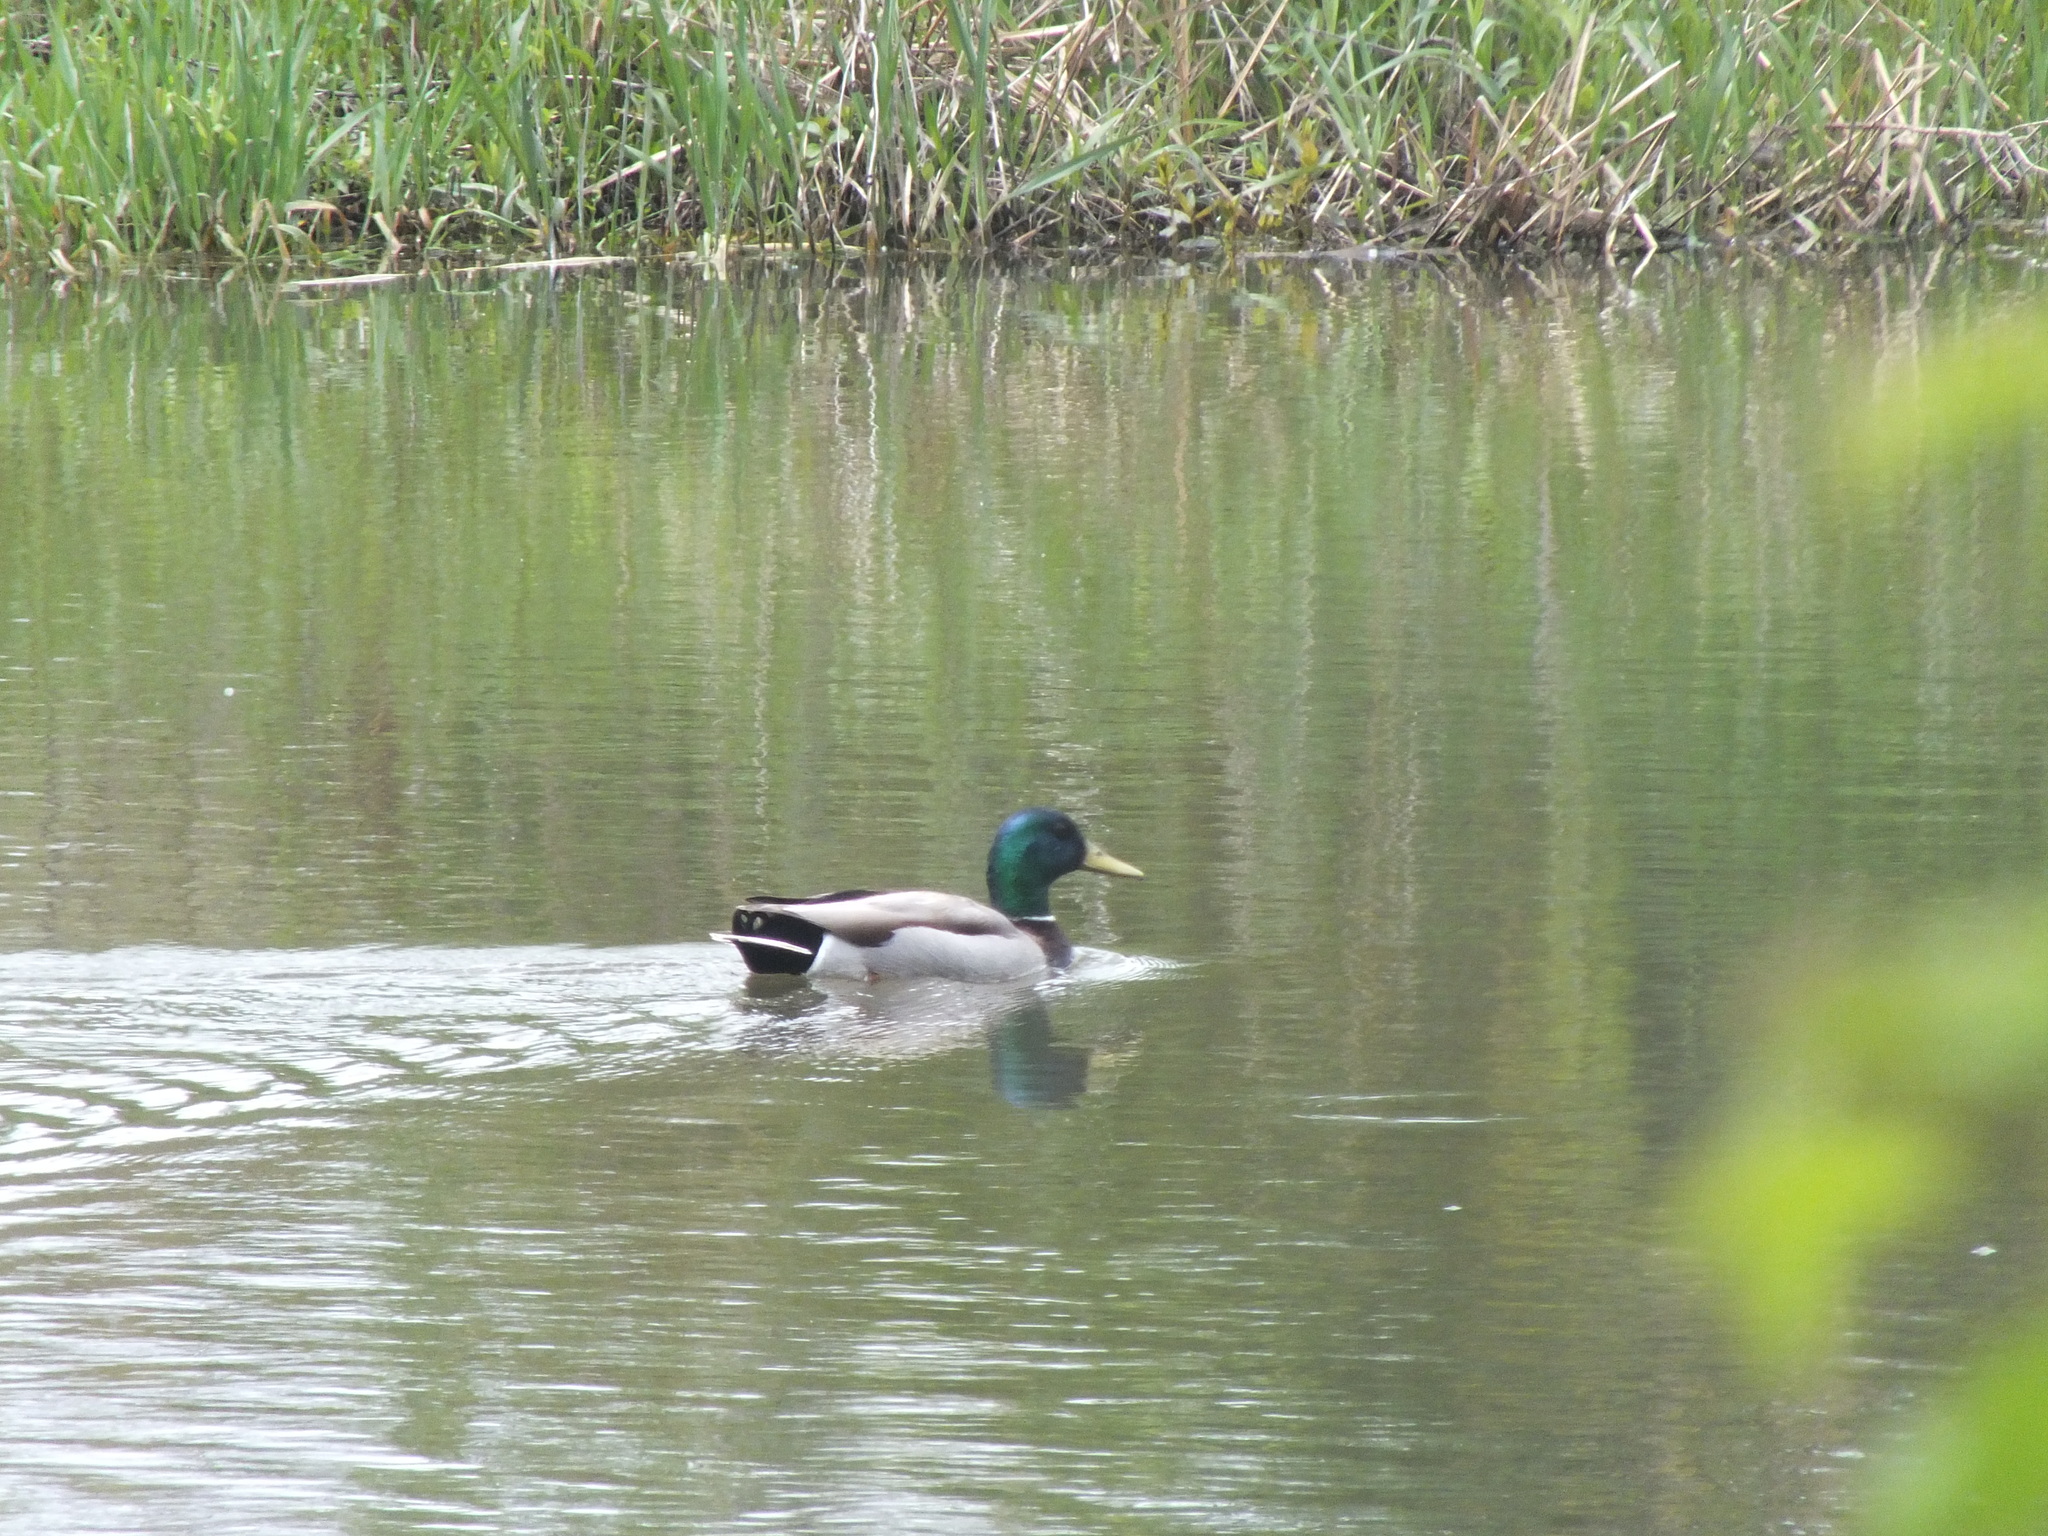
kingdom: Animalia
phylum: Chordata
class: Aves
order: Anseriformes
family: Anatidae
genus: Anas
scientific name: Anas platyrhynchos
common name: Mallard
